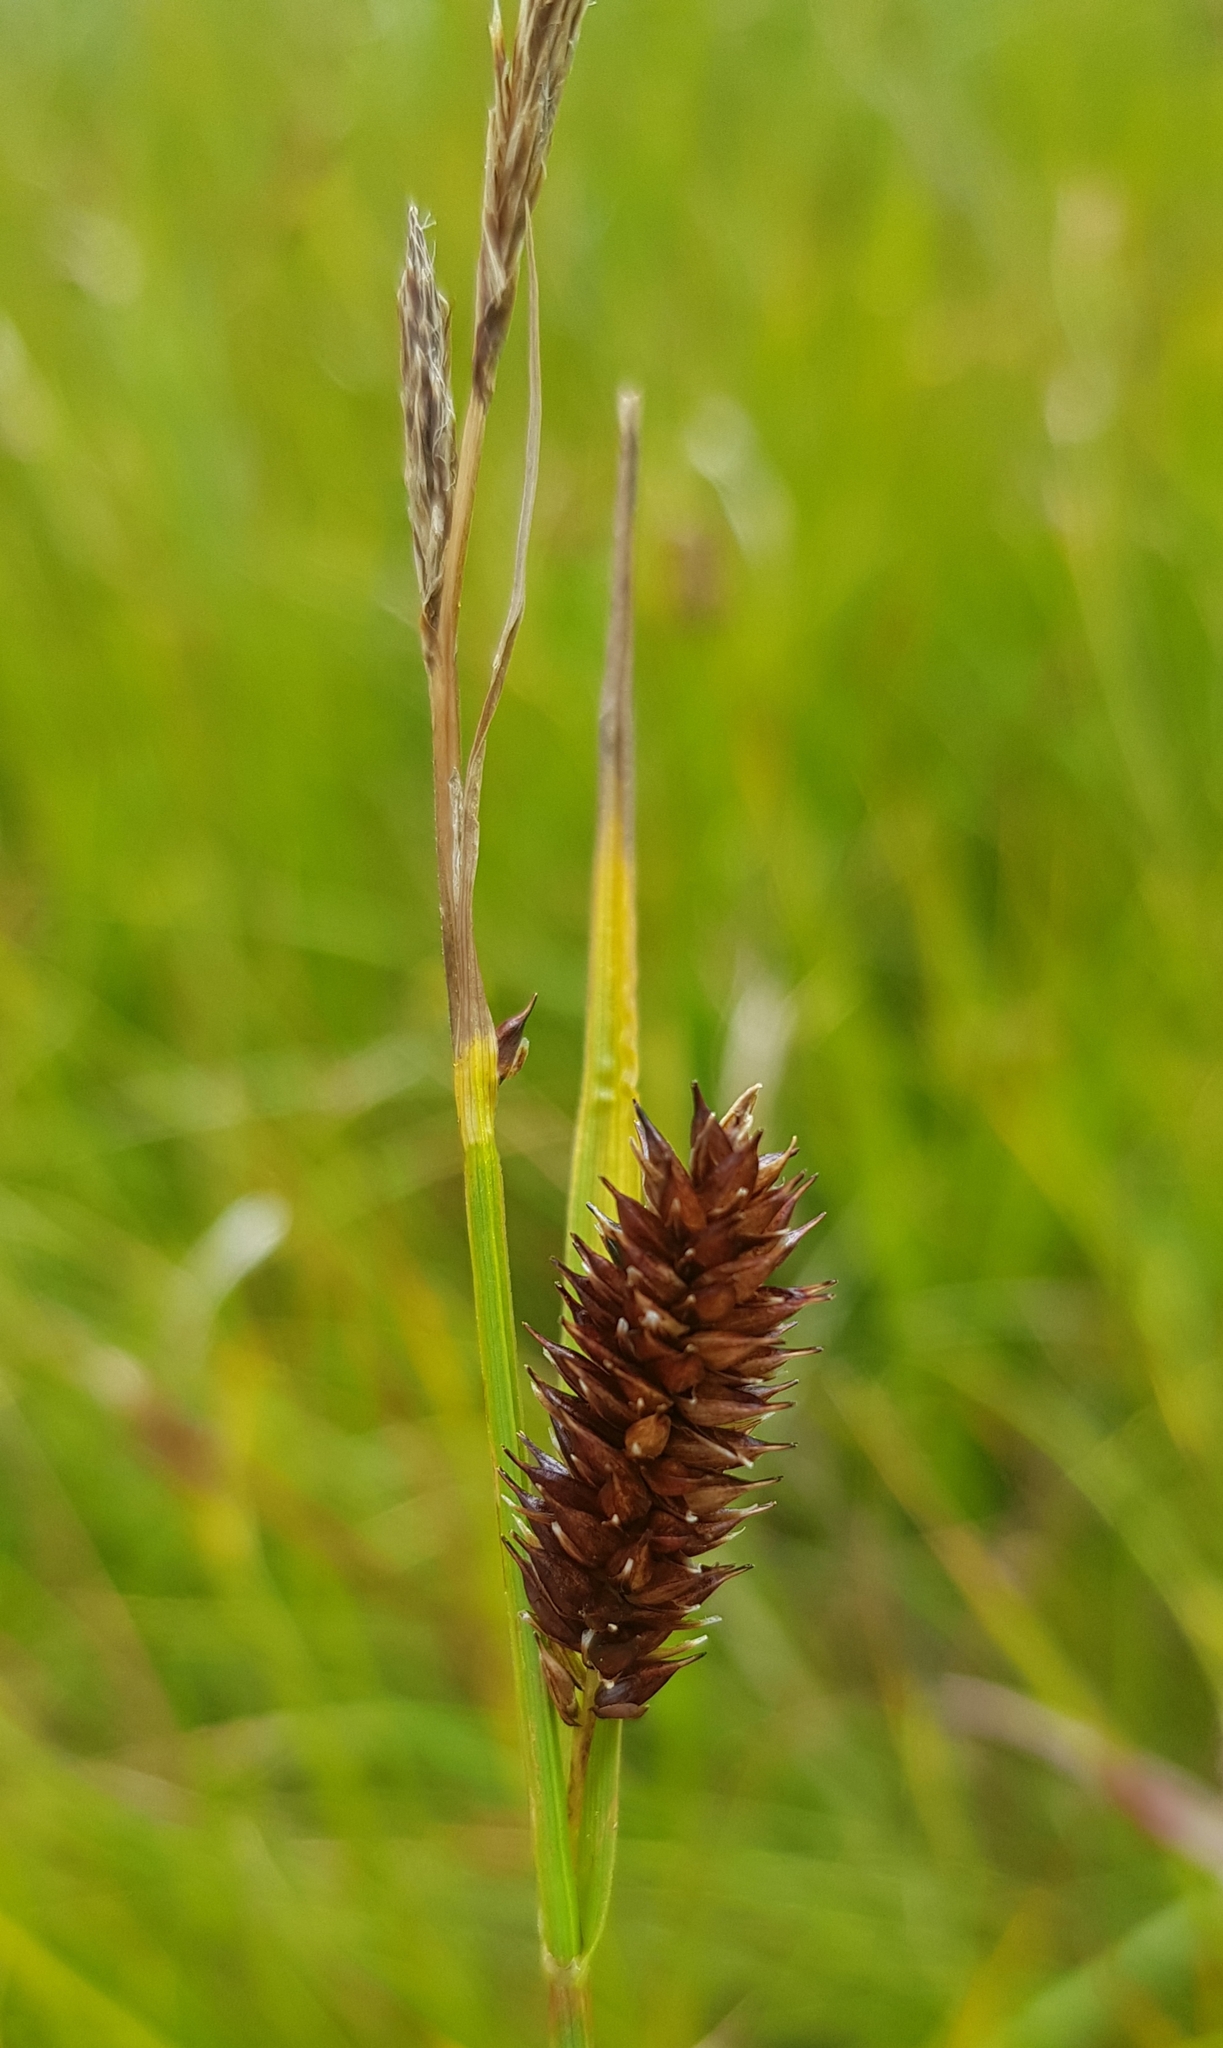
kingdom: Plantae
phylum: Tracheophyta
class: Liliopsida
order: Poales
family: Cyperaceae
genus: Carex
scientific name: Carex pamirensis
